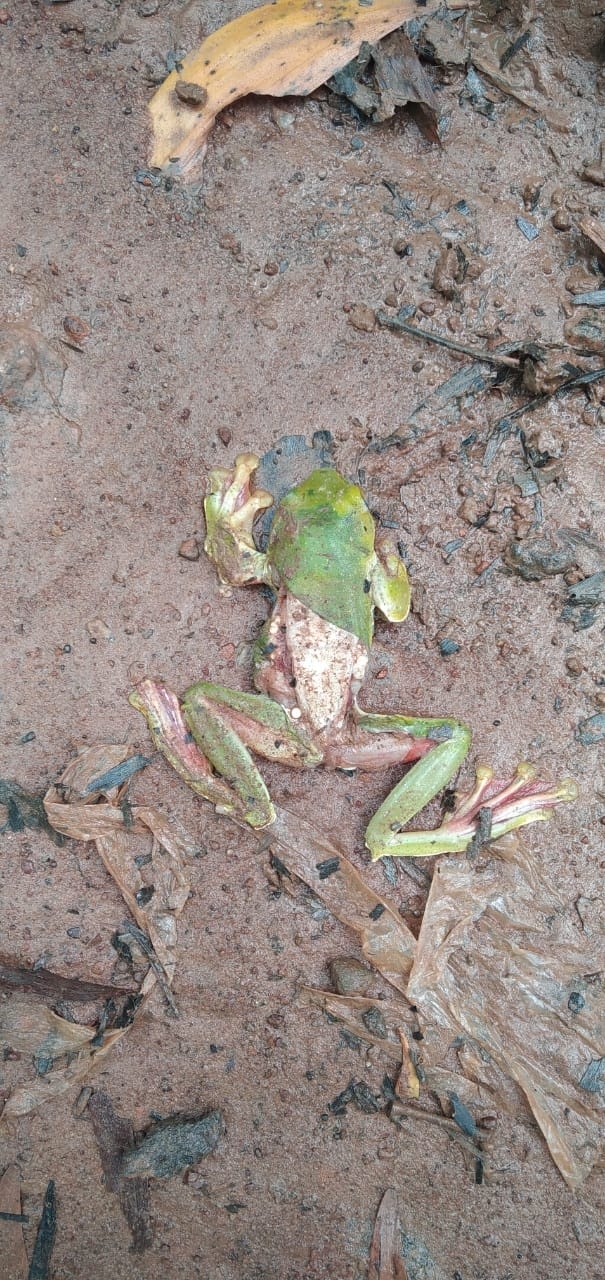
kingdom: Animalia
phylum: Chordata
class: Amphibia
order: Anura
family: Rhacophoridae
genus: Rhacophorus
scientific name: Rhacophorus malabaricus
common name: Malabar gliding frog
